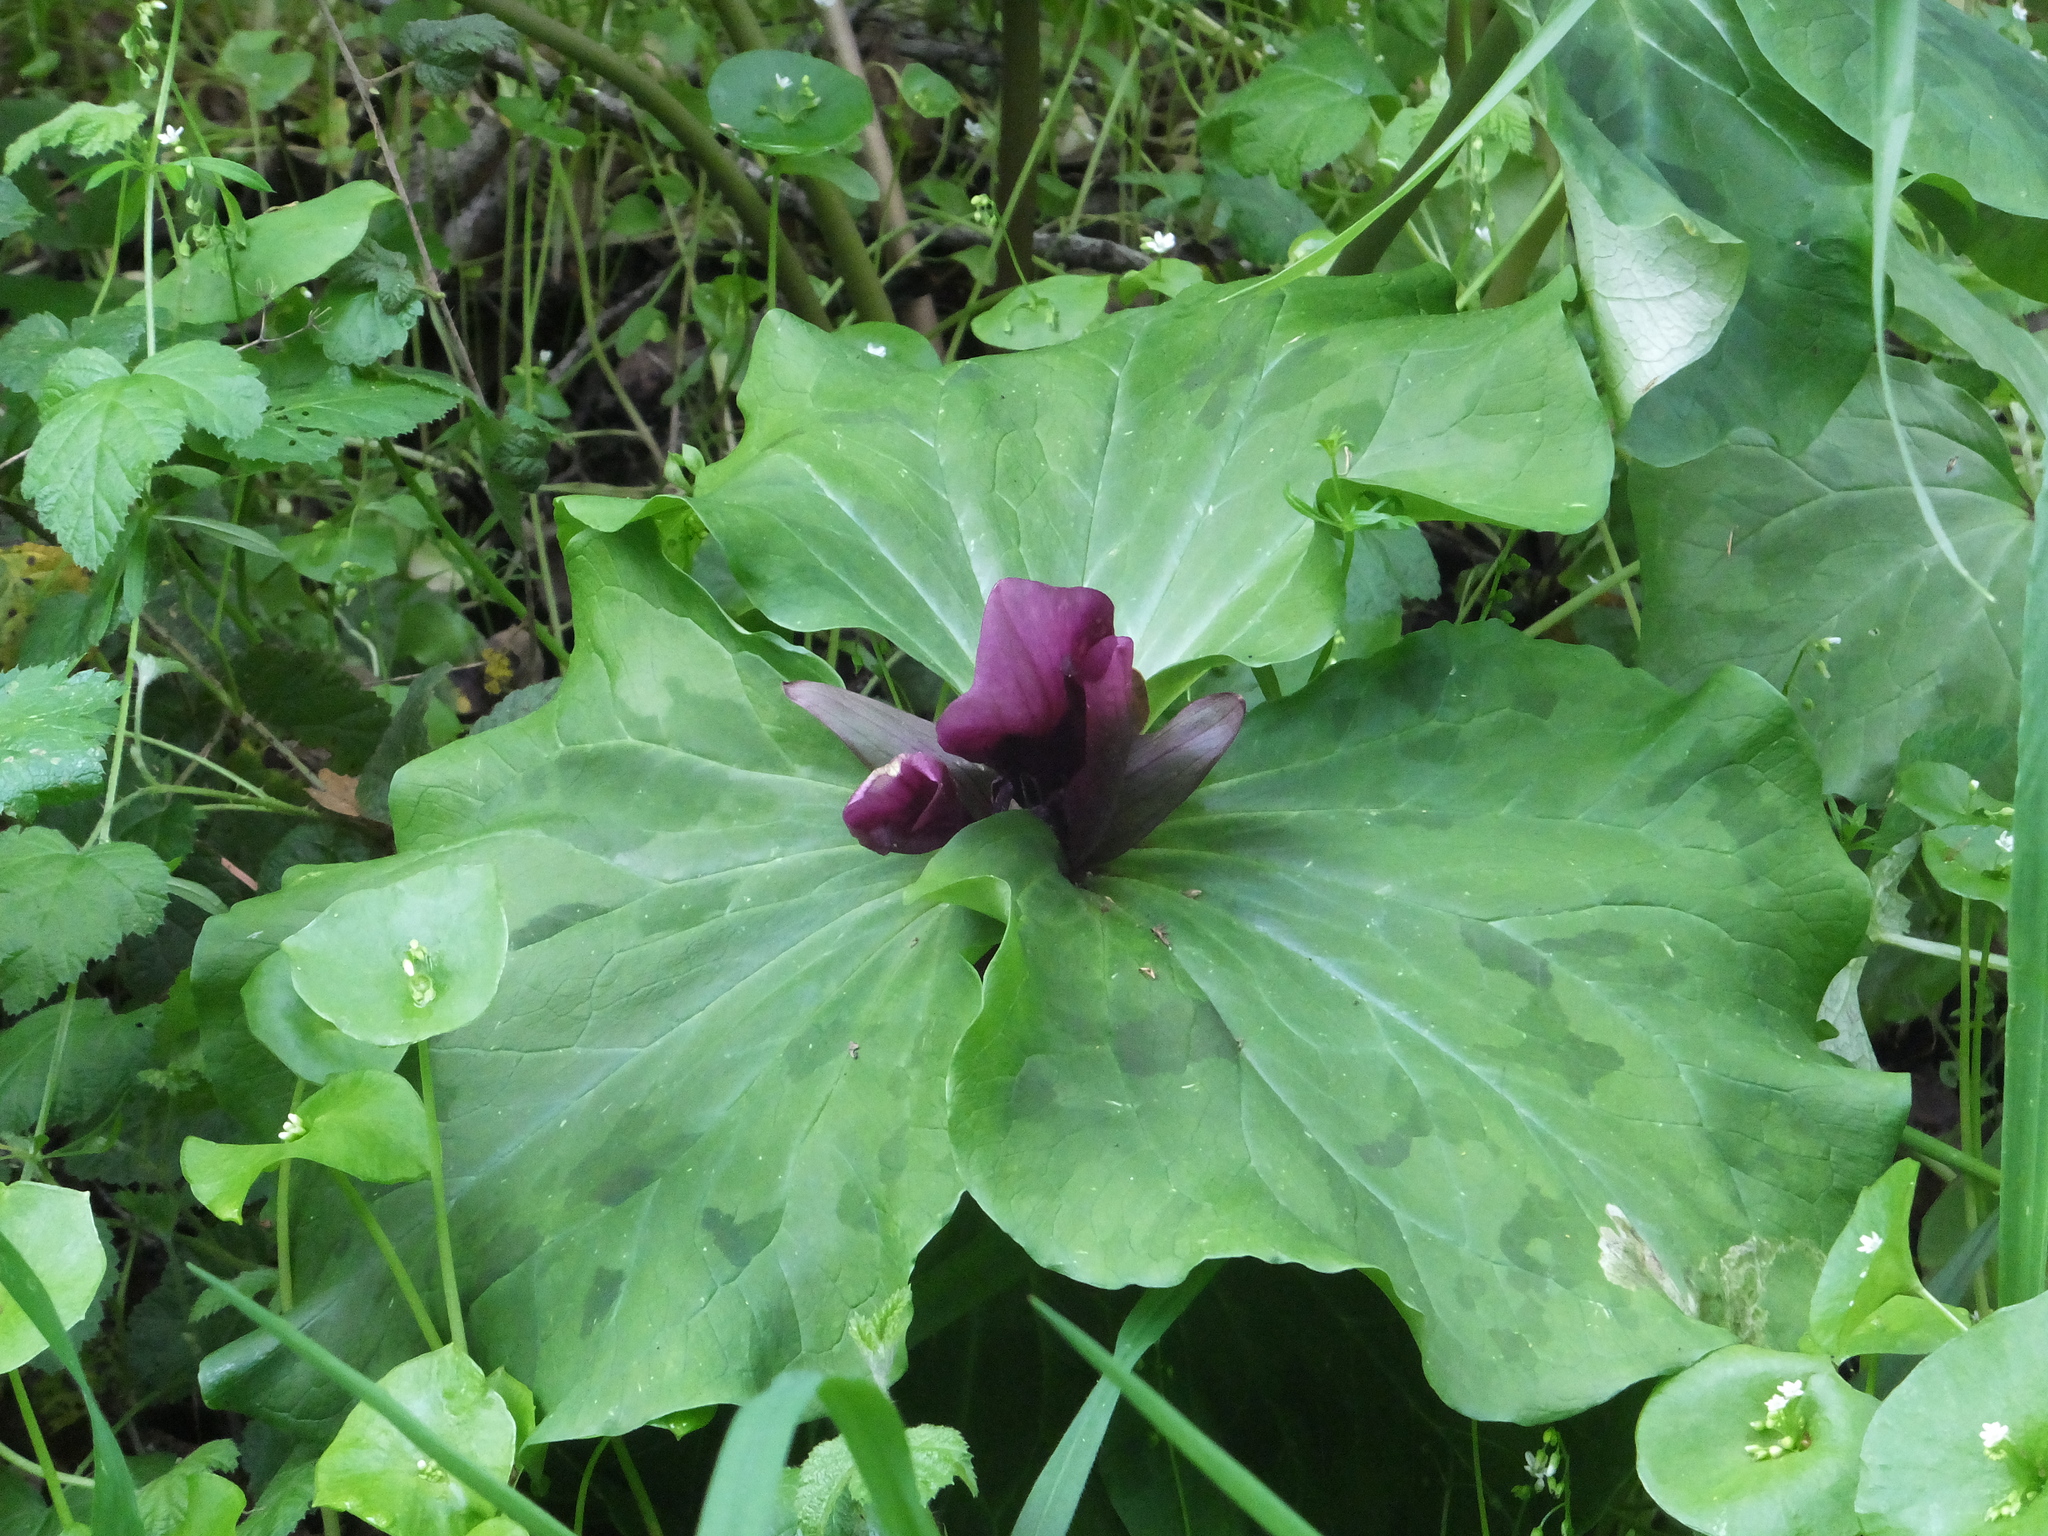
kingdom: Plantae
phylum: Tracheophyta
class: Liliopsida
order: Liliales
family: Melanthiaceae
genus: Trillium
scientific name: Trillium chloropetalum
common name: Giant trillium
